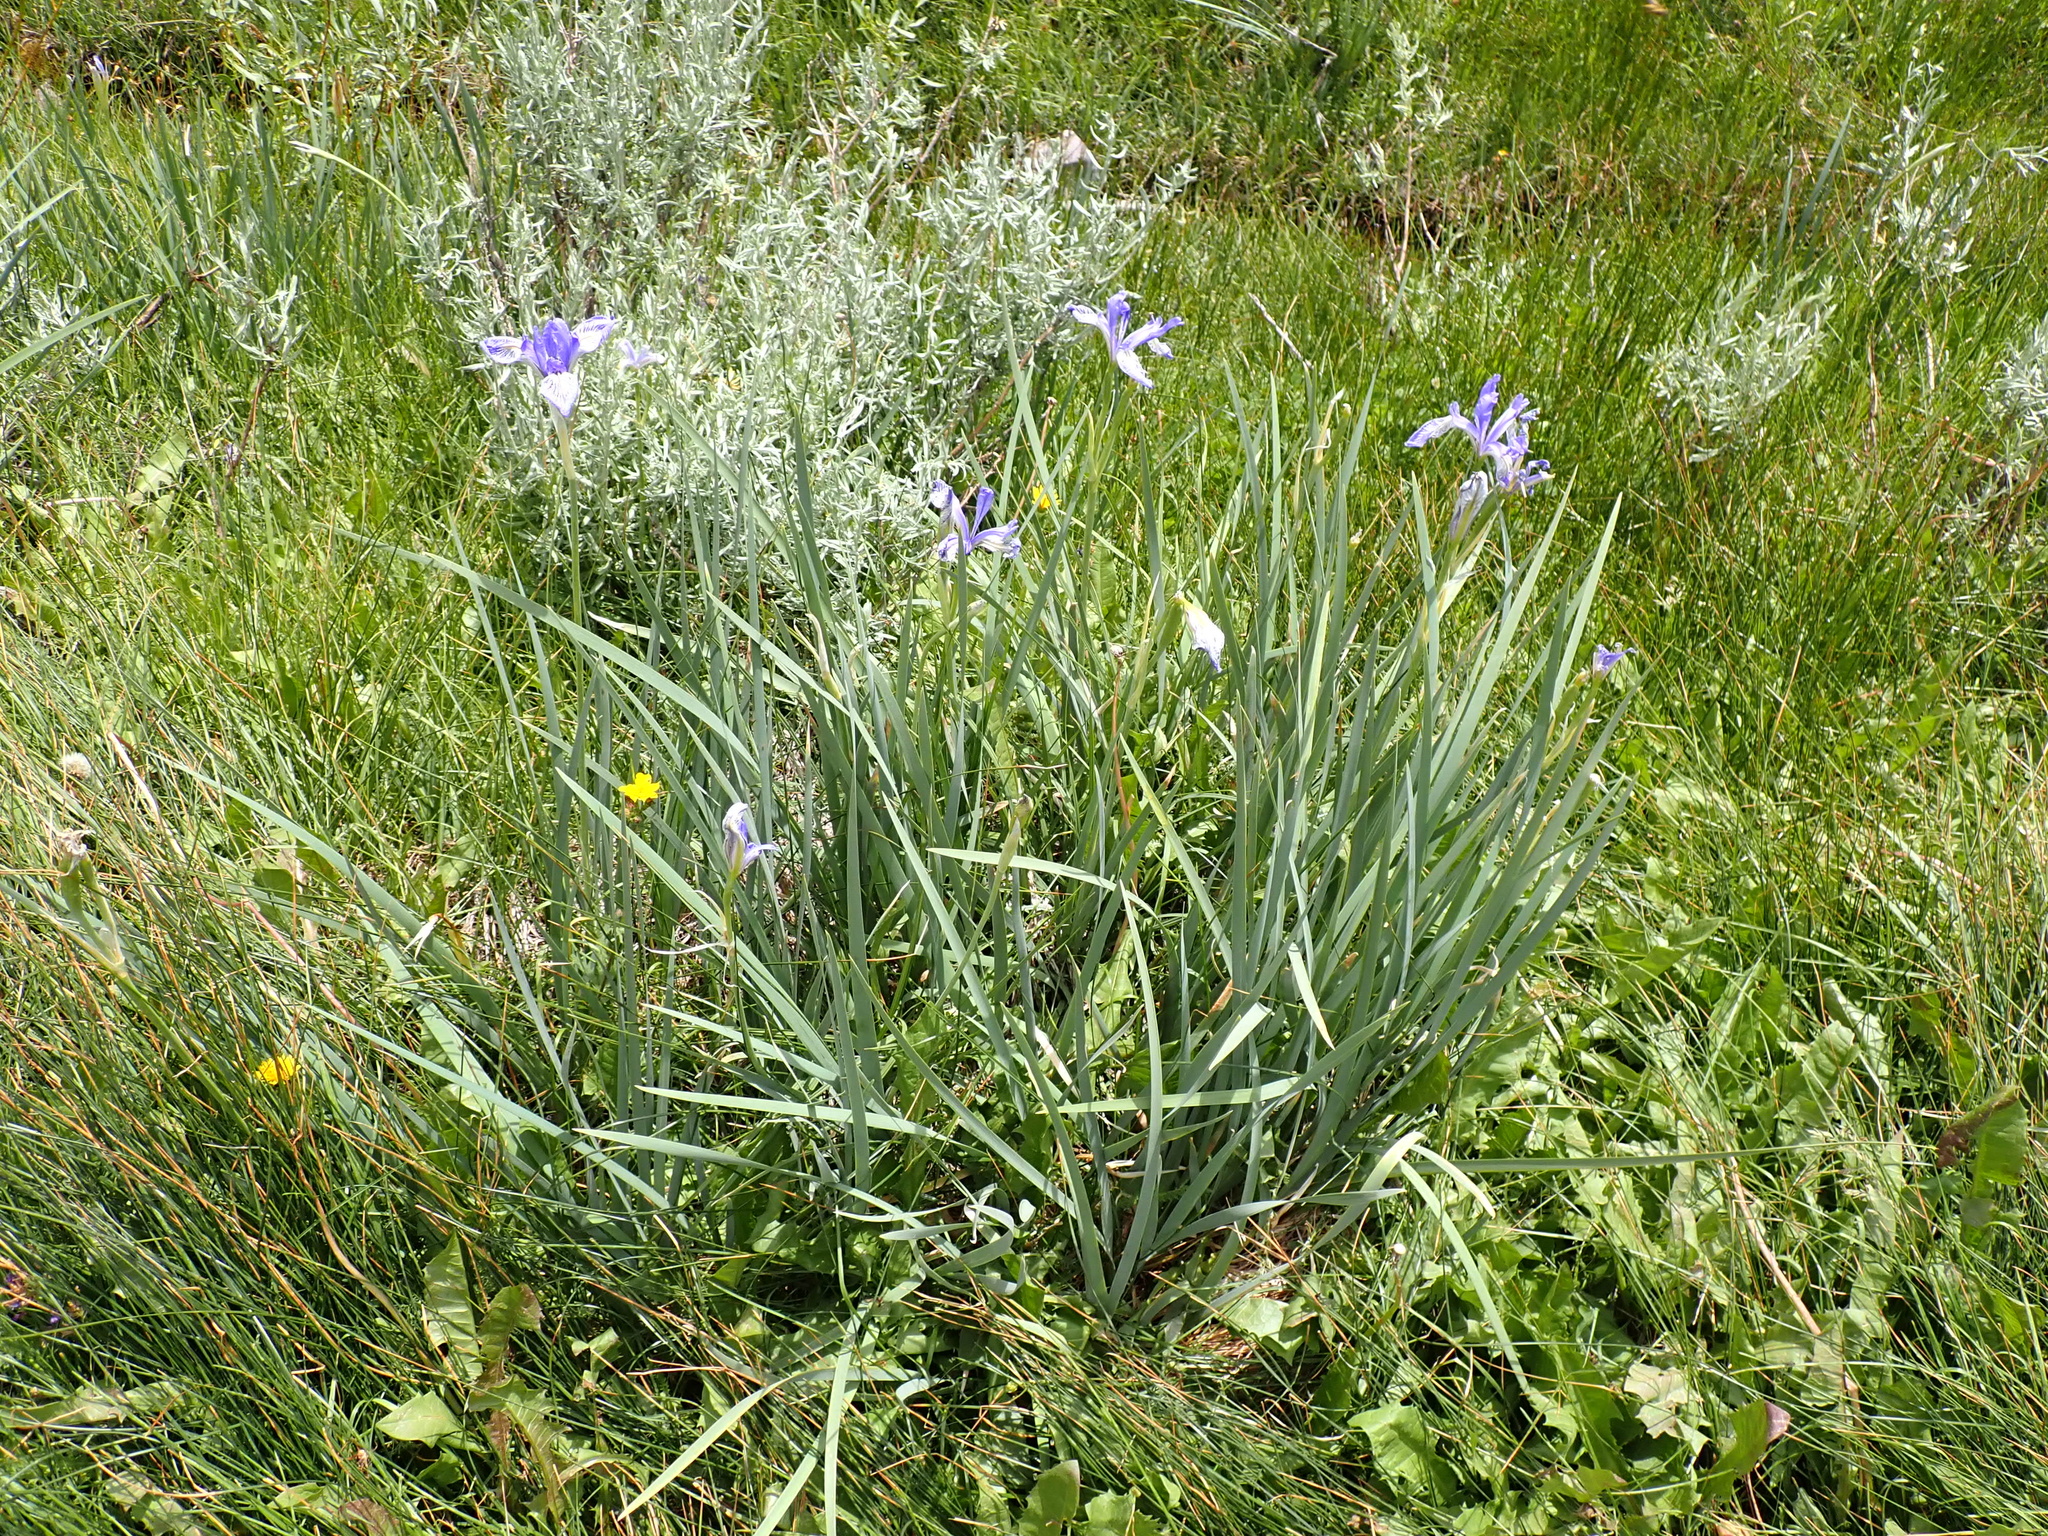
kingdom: Plantae
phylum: Tracheophyta
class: Liliopsida
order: Asparagales
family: Iridaceae
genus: Iris
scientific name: Iris missouriensis
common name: Rocky mountain iris
